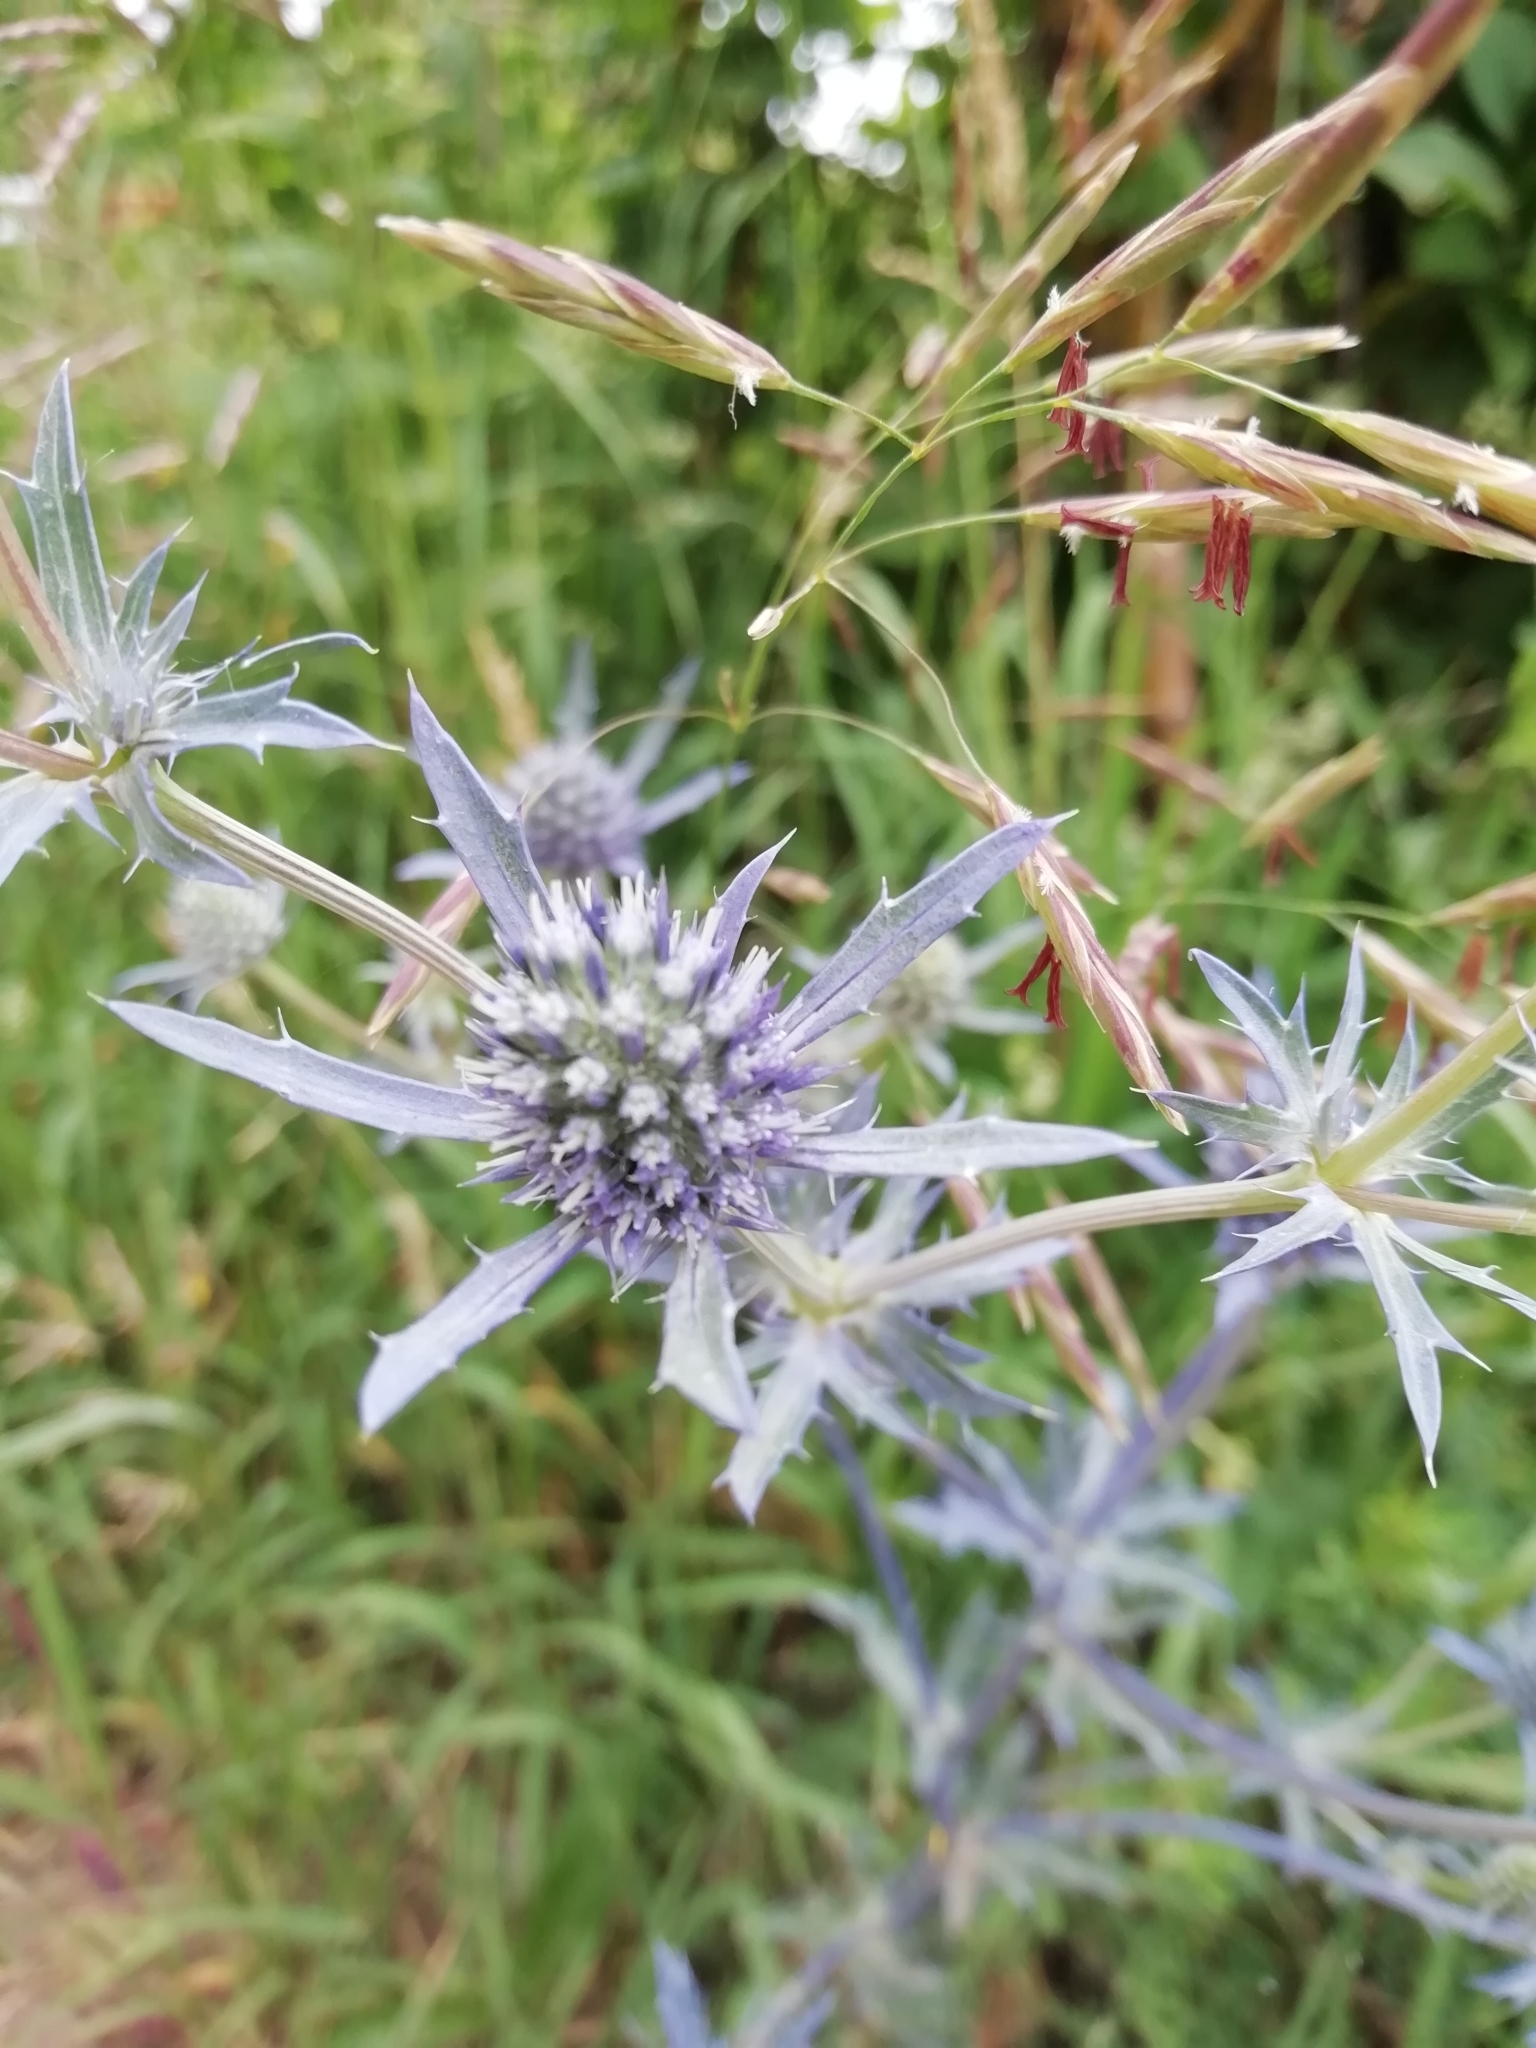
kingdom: Plantae
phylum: Tracheophyta
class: Magnoliopsida
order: Apiales
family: Apiaceae
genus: Eryngium
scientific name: Eryngium planum
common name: Blue eryngo
